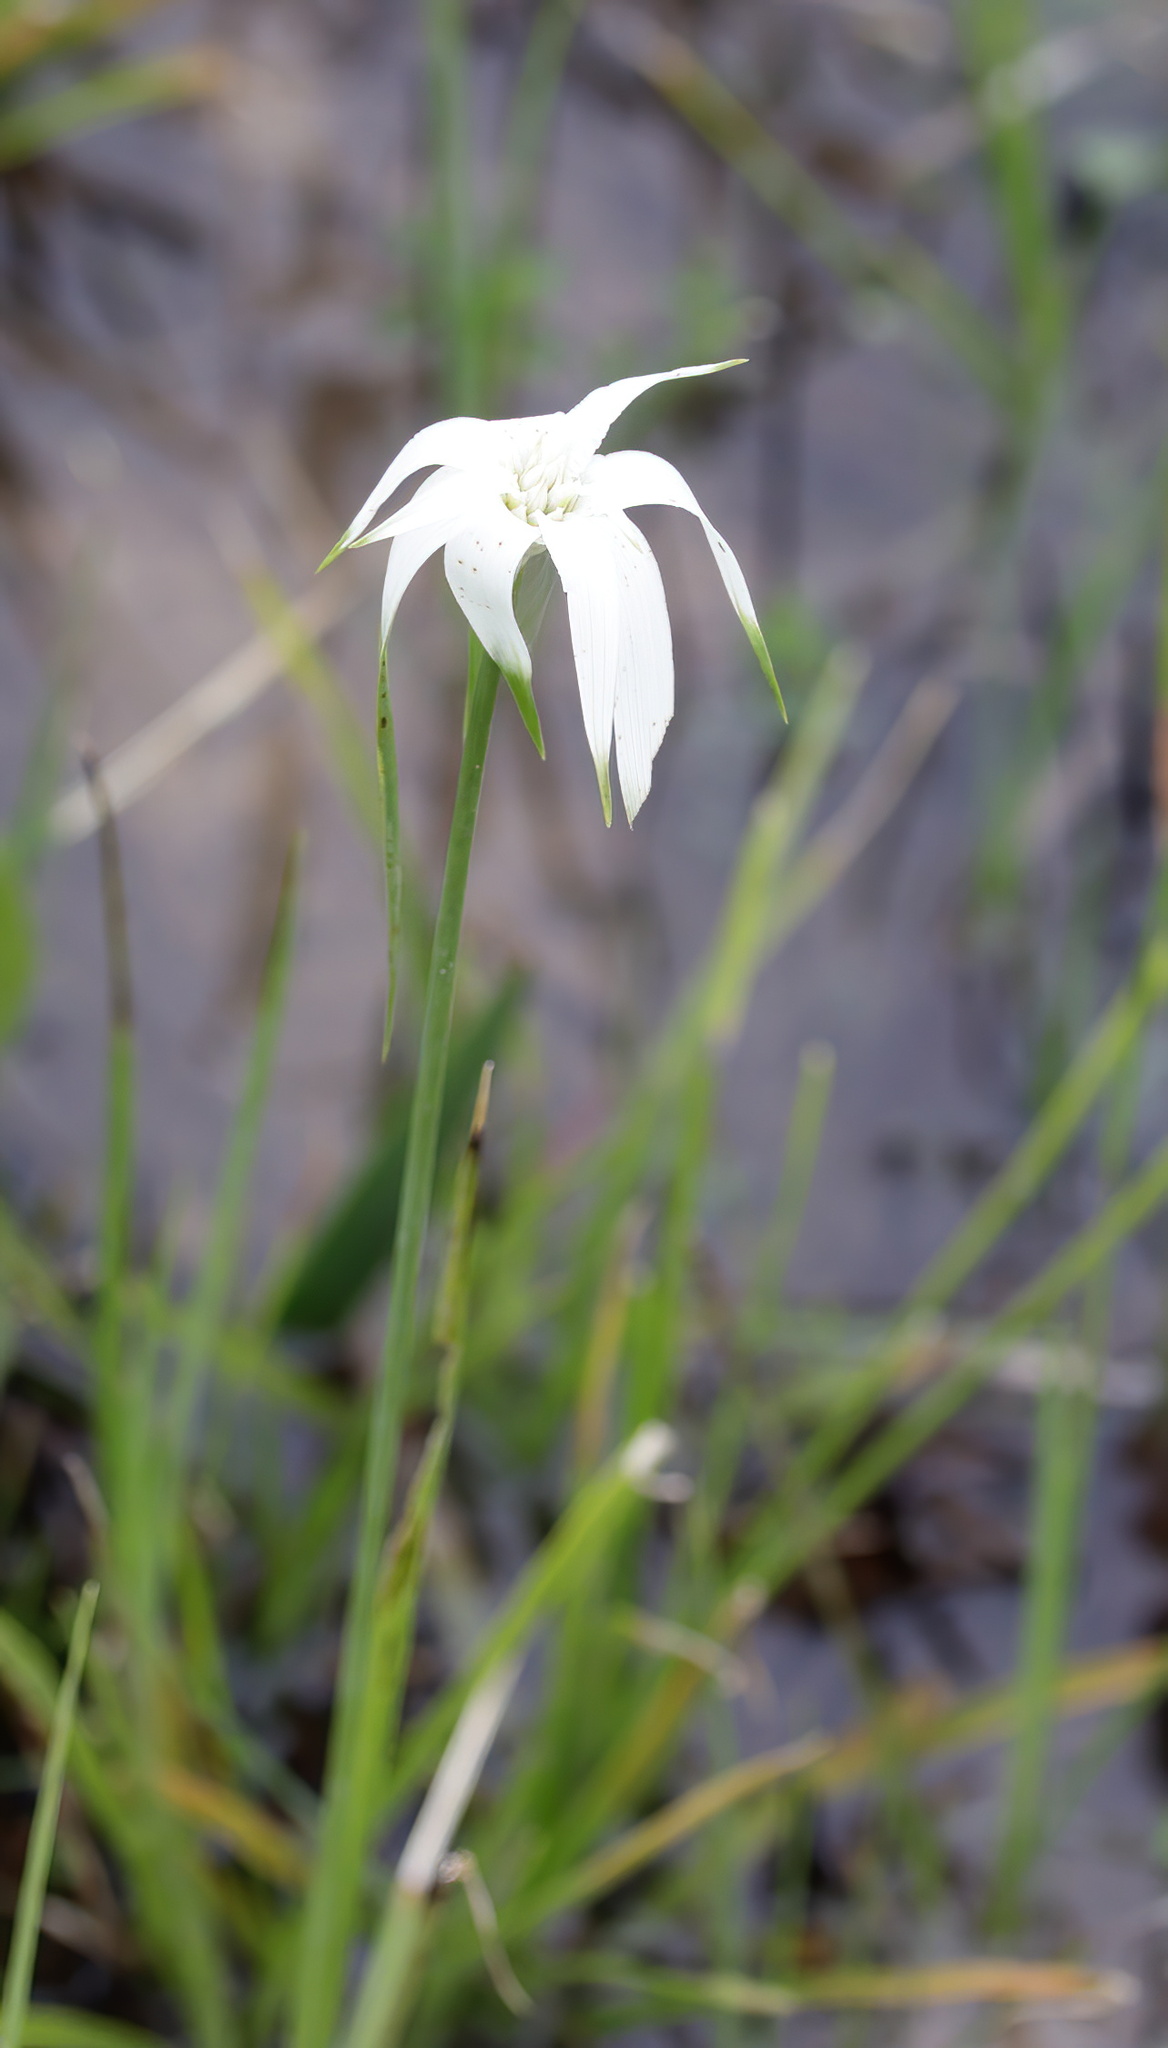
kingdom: Plantae
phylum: Tracheophyta
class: Liliopsida
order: Poales
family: Cyperaceae
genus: Rhynchospora
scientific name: Rhynchospora latifolia
